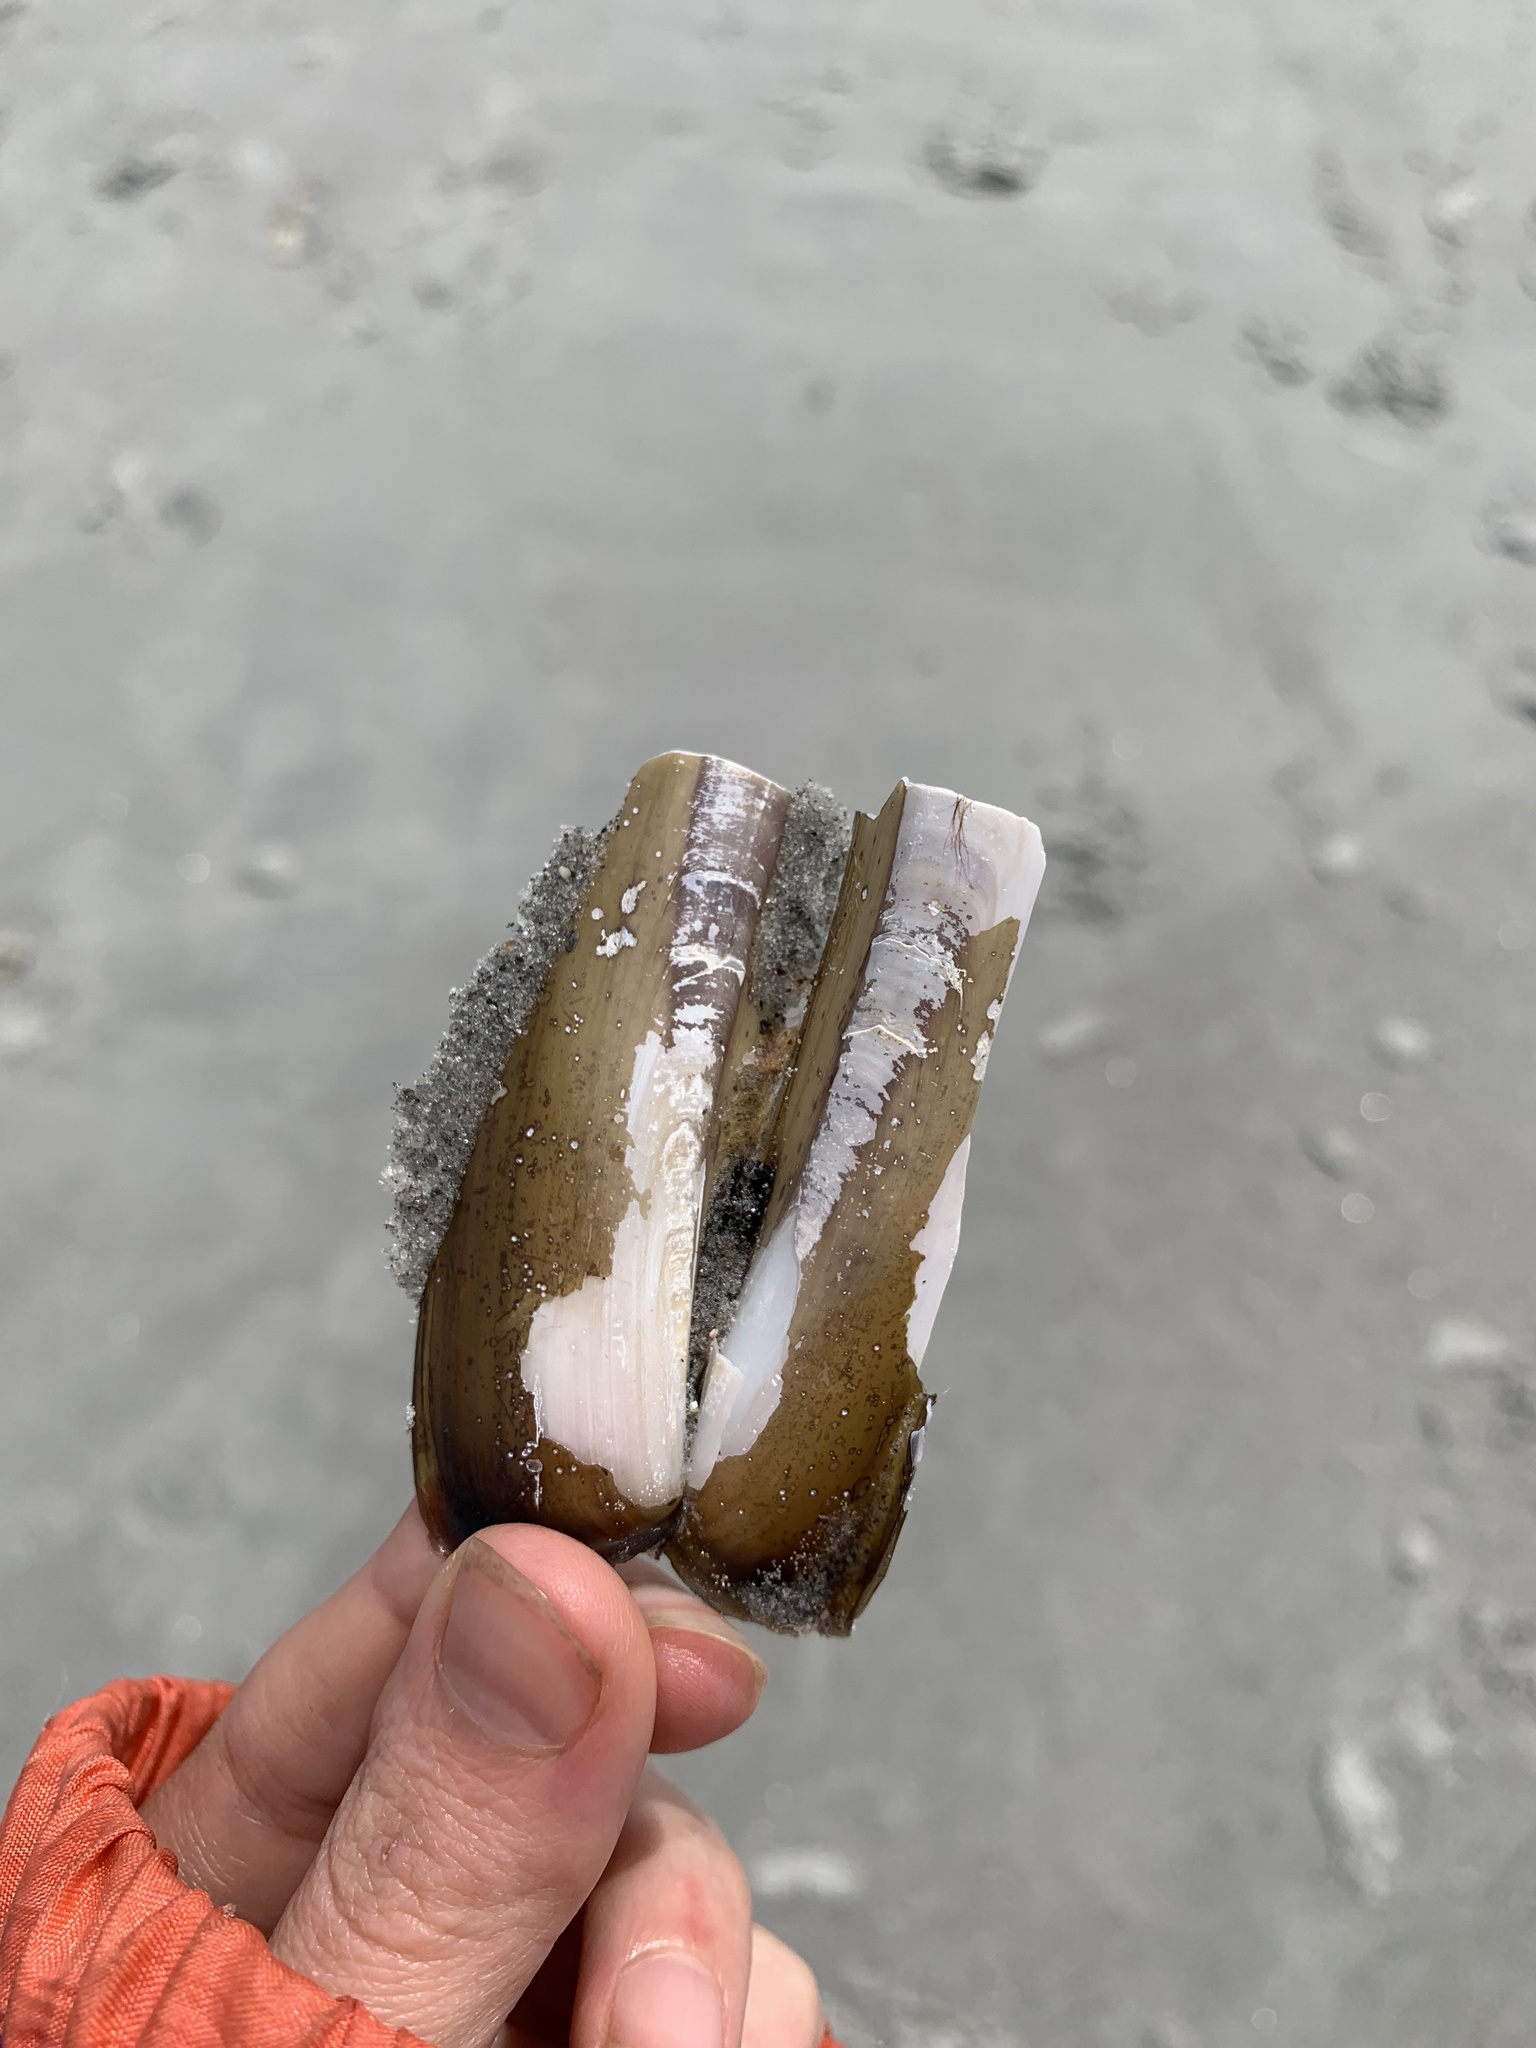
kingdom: Animalia
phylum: Mollusca
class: Bivalvia
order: Adapedonta
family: Pharidae
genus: Ensis
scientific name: Ensis leei
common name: American jack knife clam
